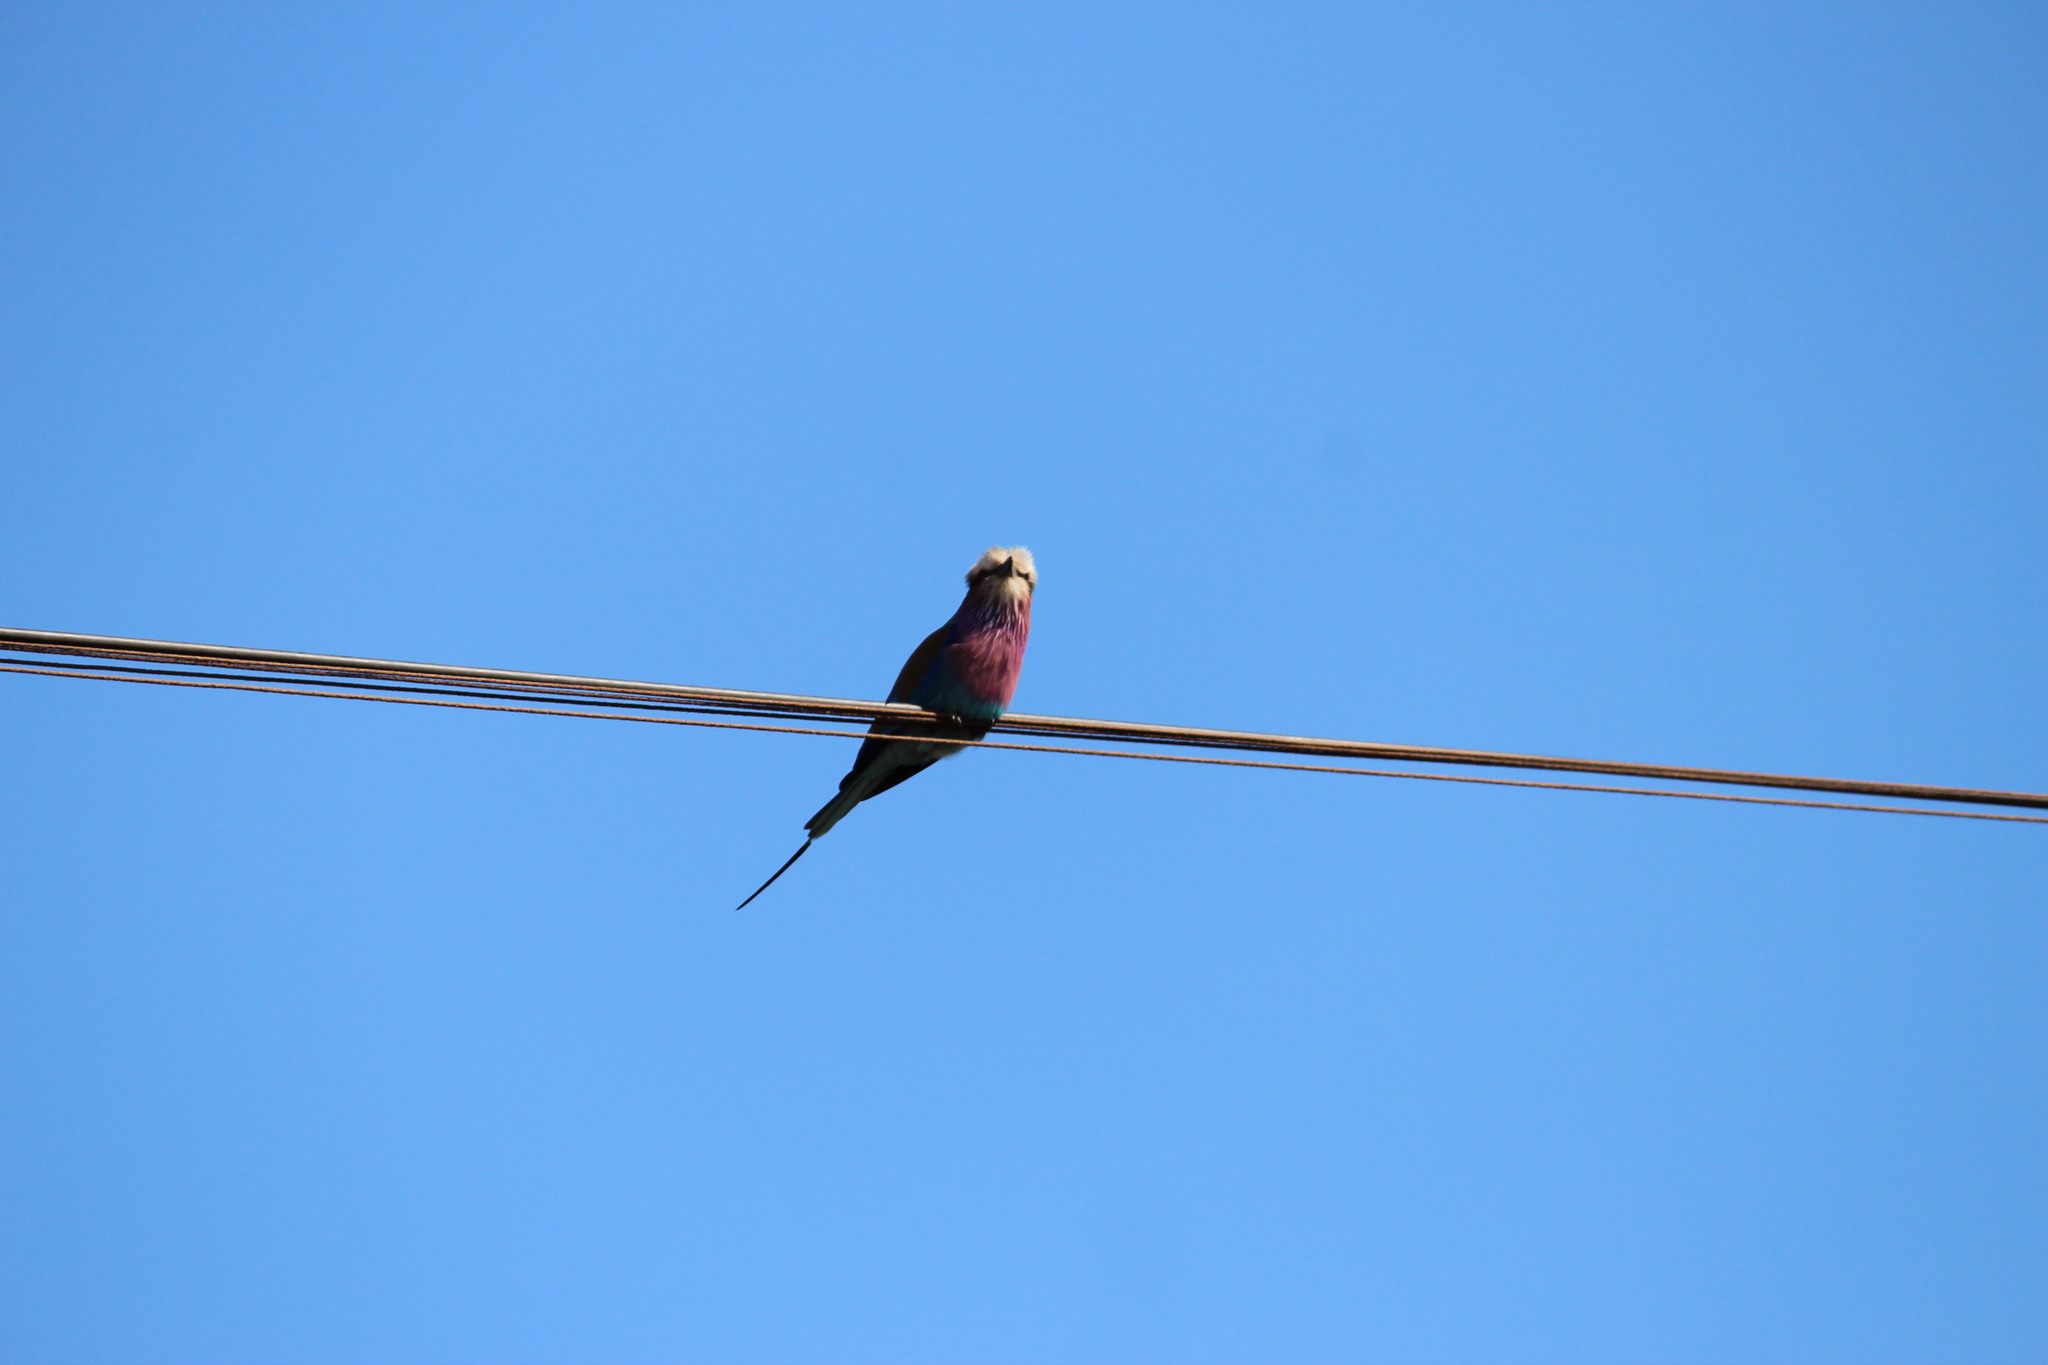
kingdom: Animalia
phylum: Chordata
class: Aves
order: Coraciiformes
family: Coraciidae
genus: Coracias
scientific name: Coracias caudatus
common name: Lilac-breasted roller
